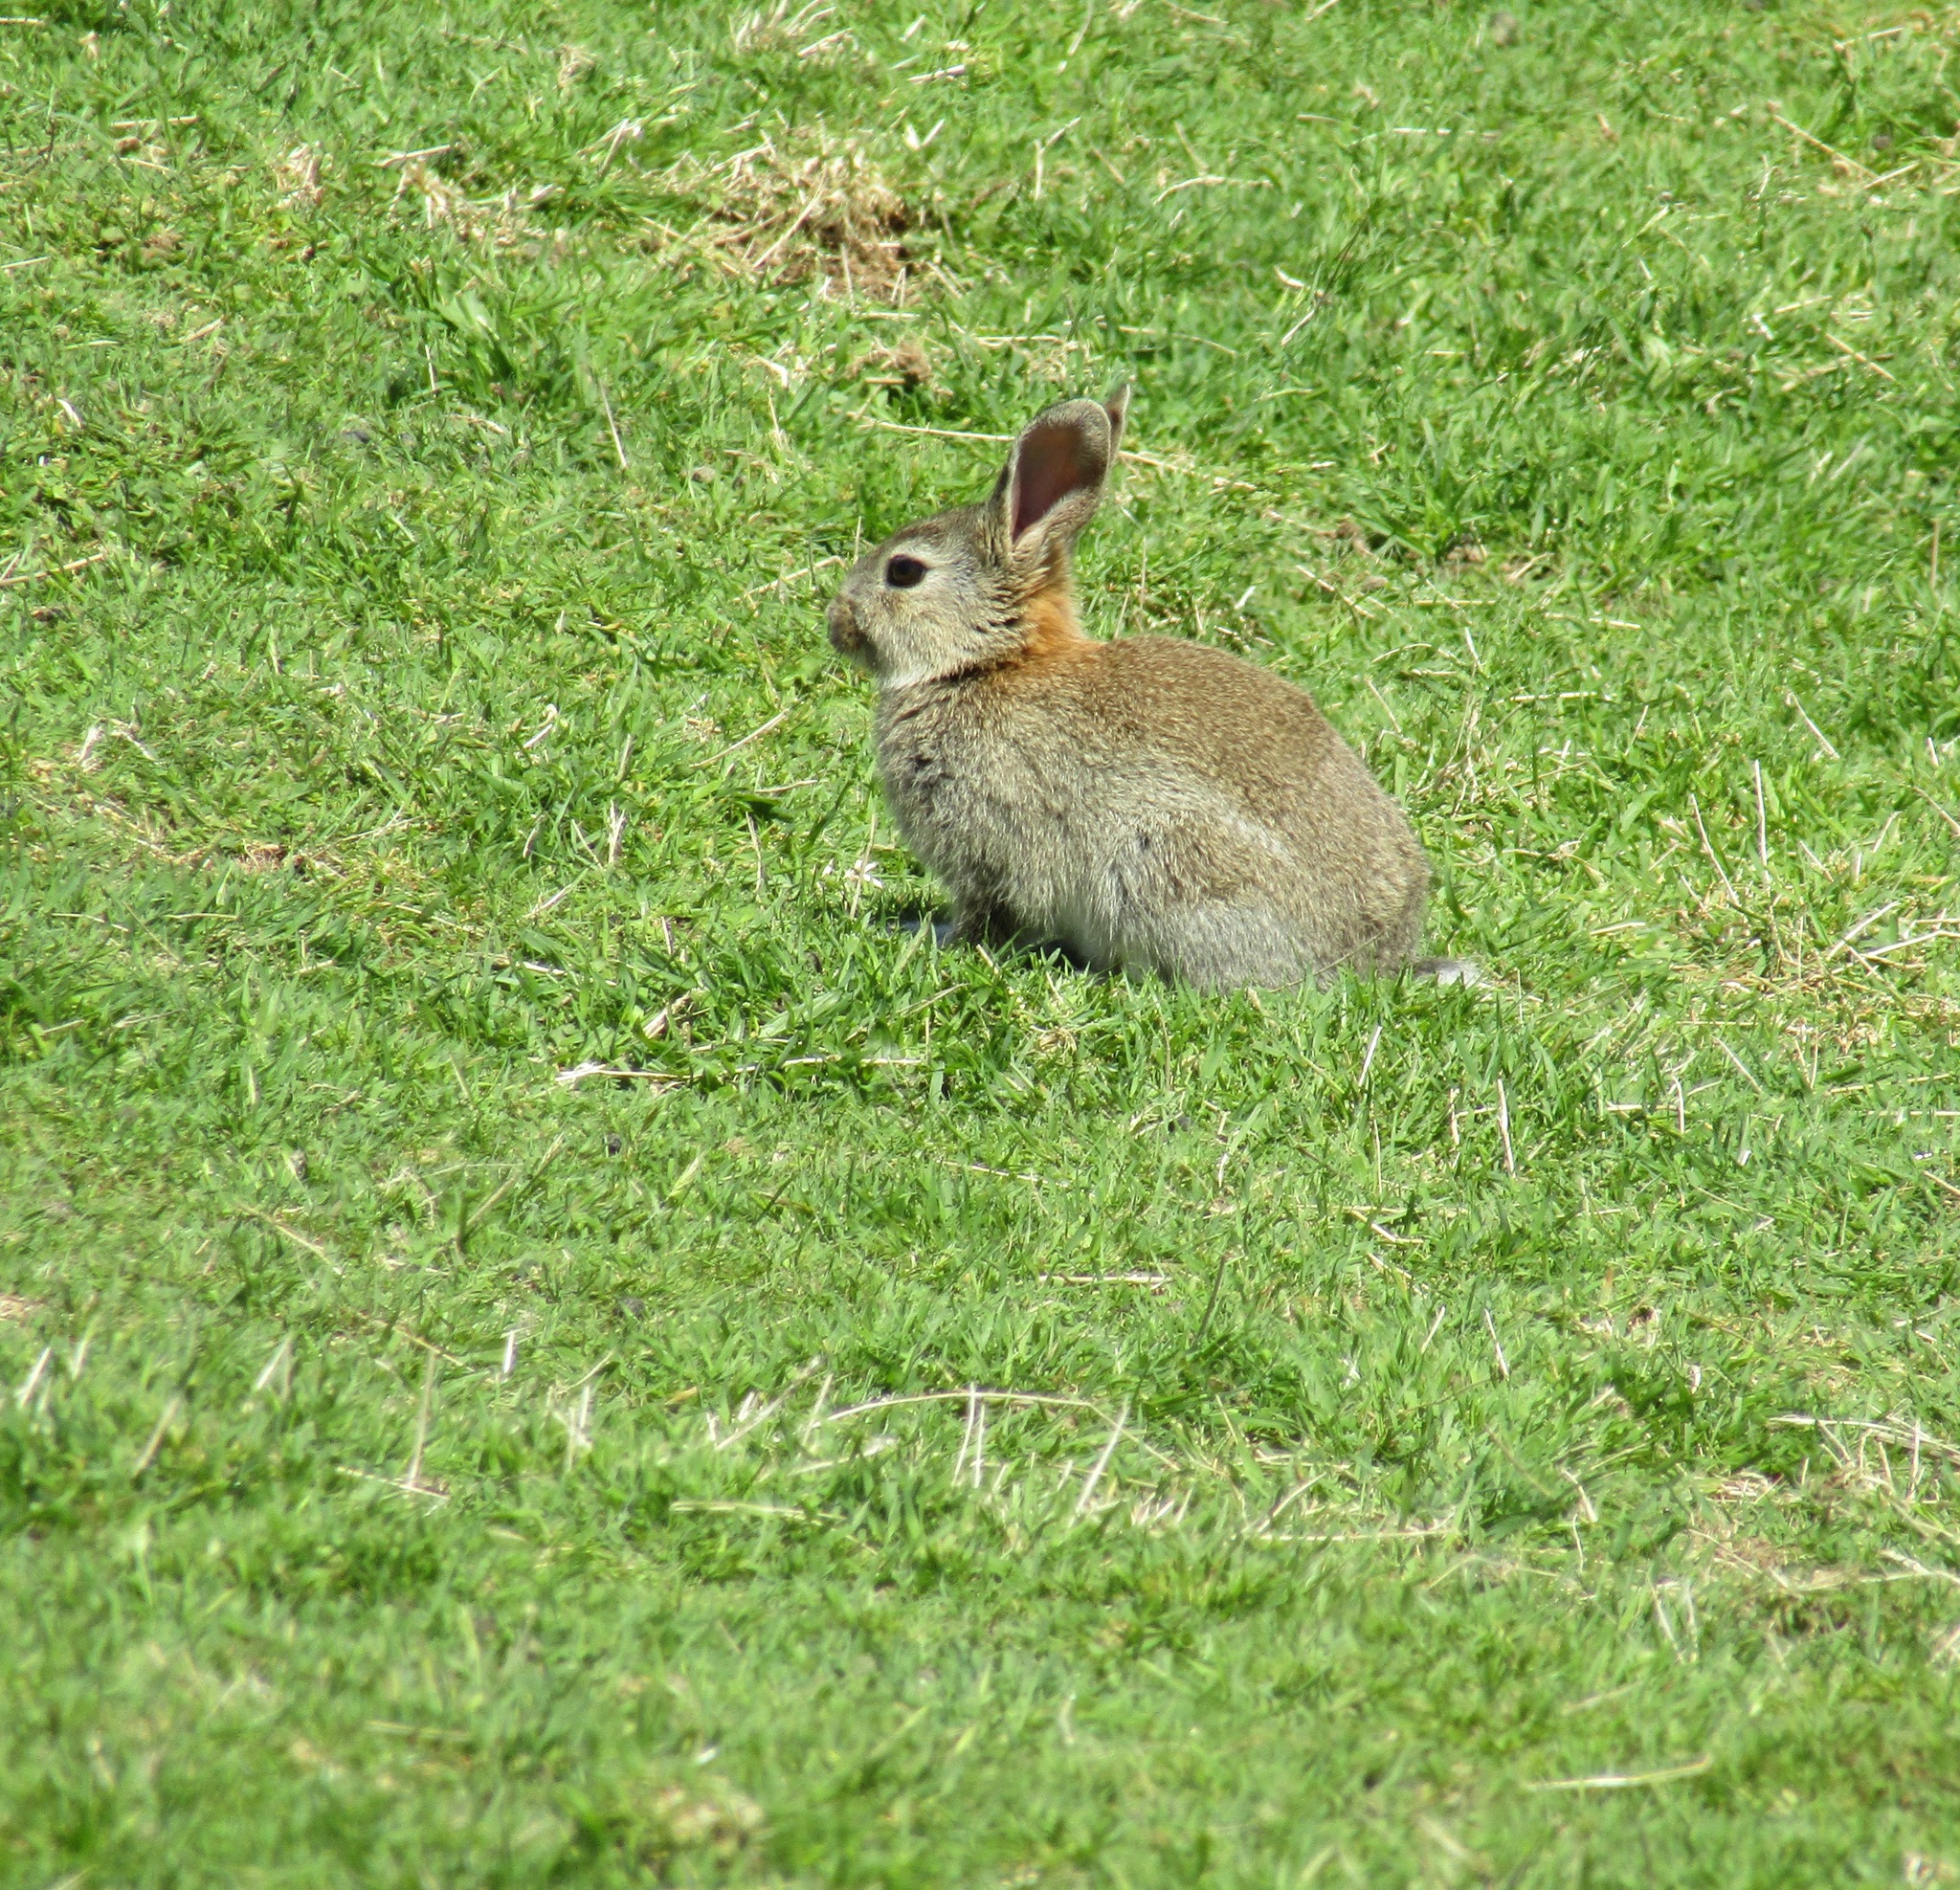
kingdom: Animalia
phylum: Chordata
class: Mammalia
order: Lagomorpha
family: Leporidae
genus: Oryctolagus
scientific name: Oryctolagus cuniculus
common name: European rabbit
